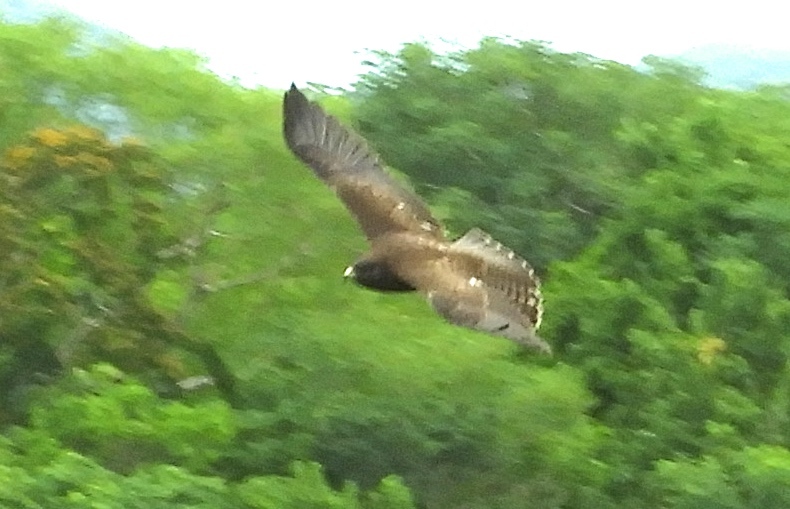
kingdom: Animalia
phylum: Chordata
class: Aves
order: Accipitriformes
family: Accipitridae
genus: Buteo
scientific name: Buteo brachyurus
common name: Short-tailed hawk
